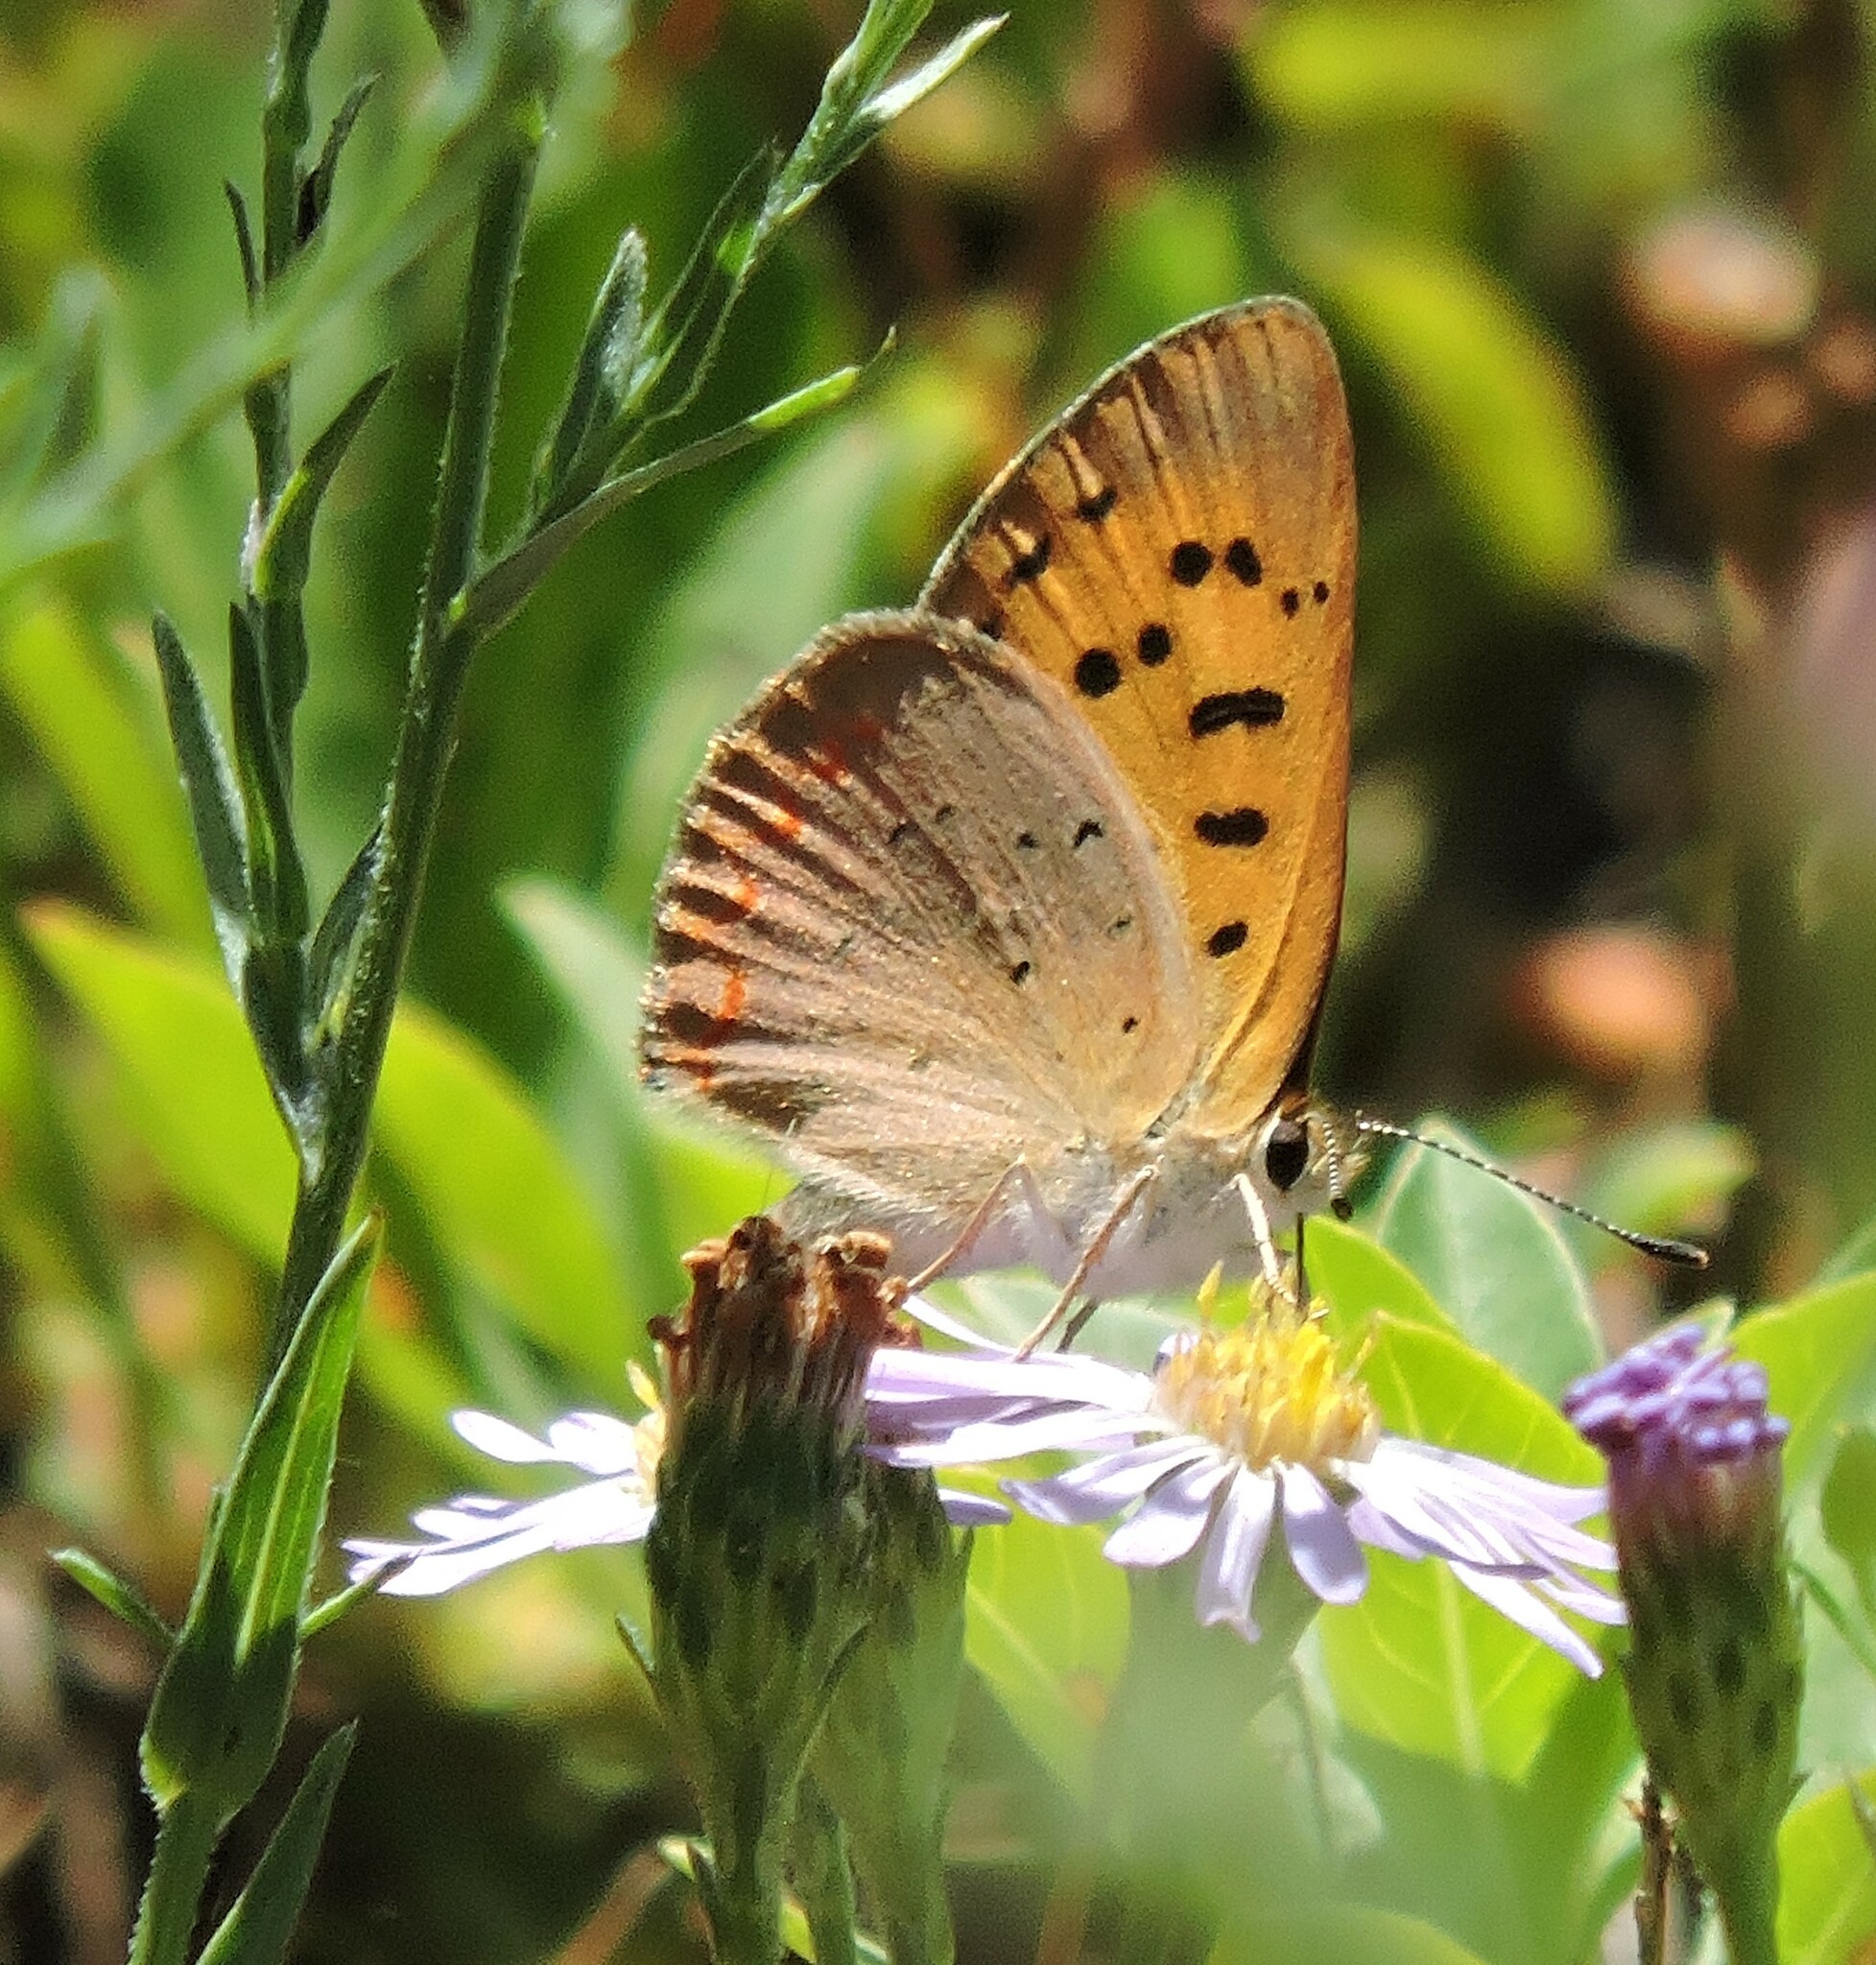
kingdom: Animalia
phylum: Arthropoda
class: Insecta
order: Lepidoptera
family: Lycaenidae
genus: Tharsalea
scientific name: Tharsalea helloides
